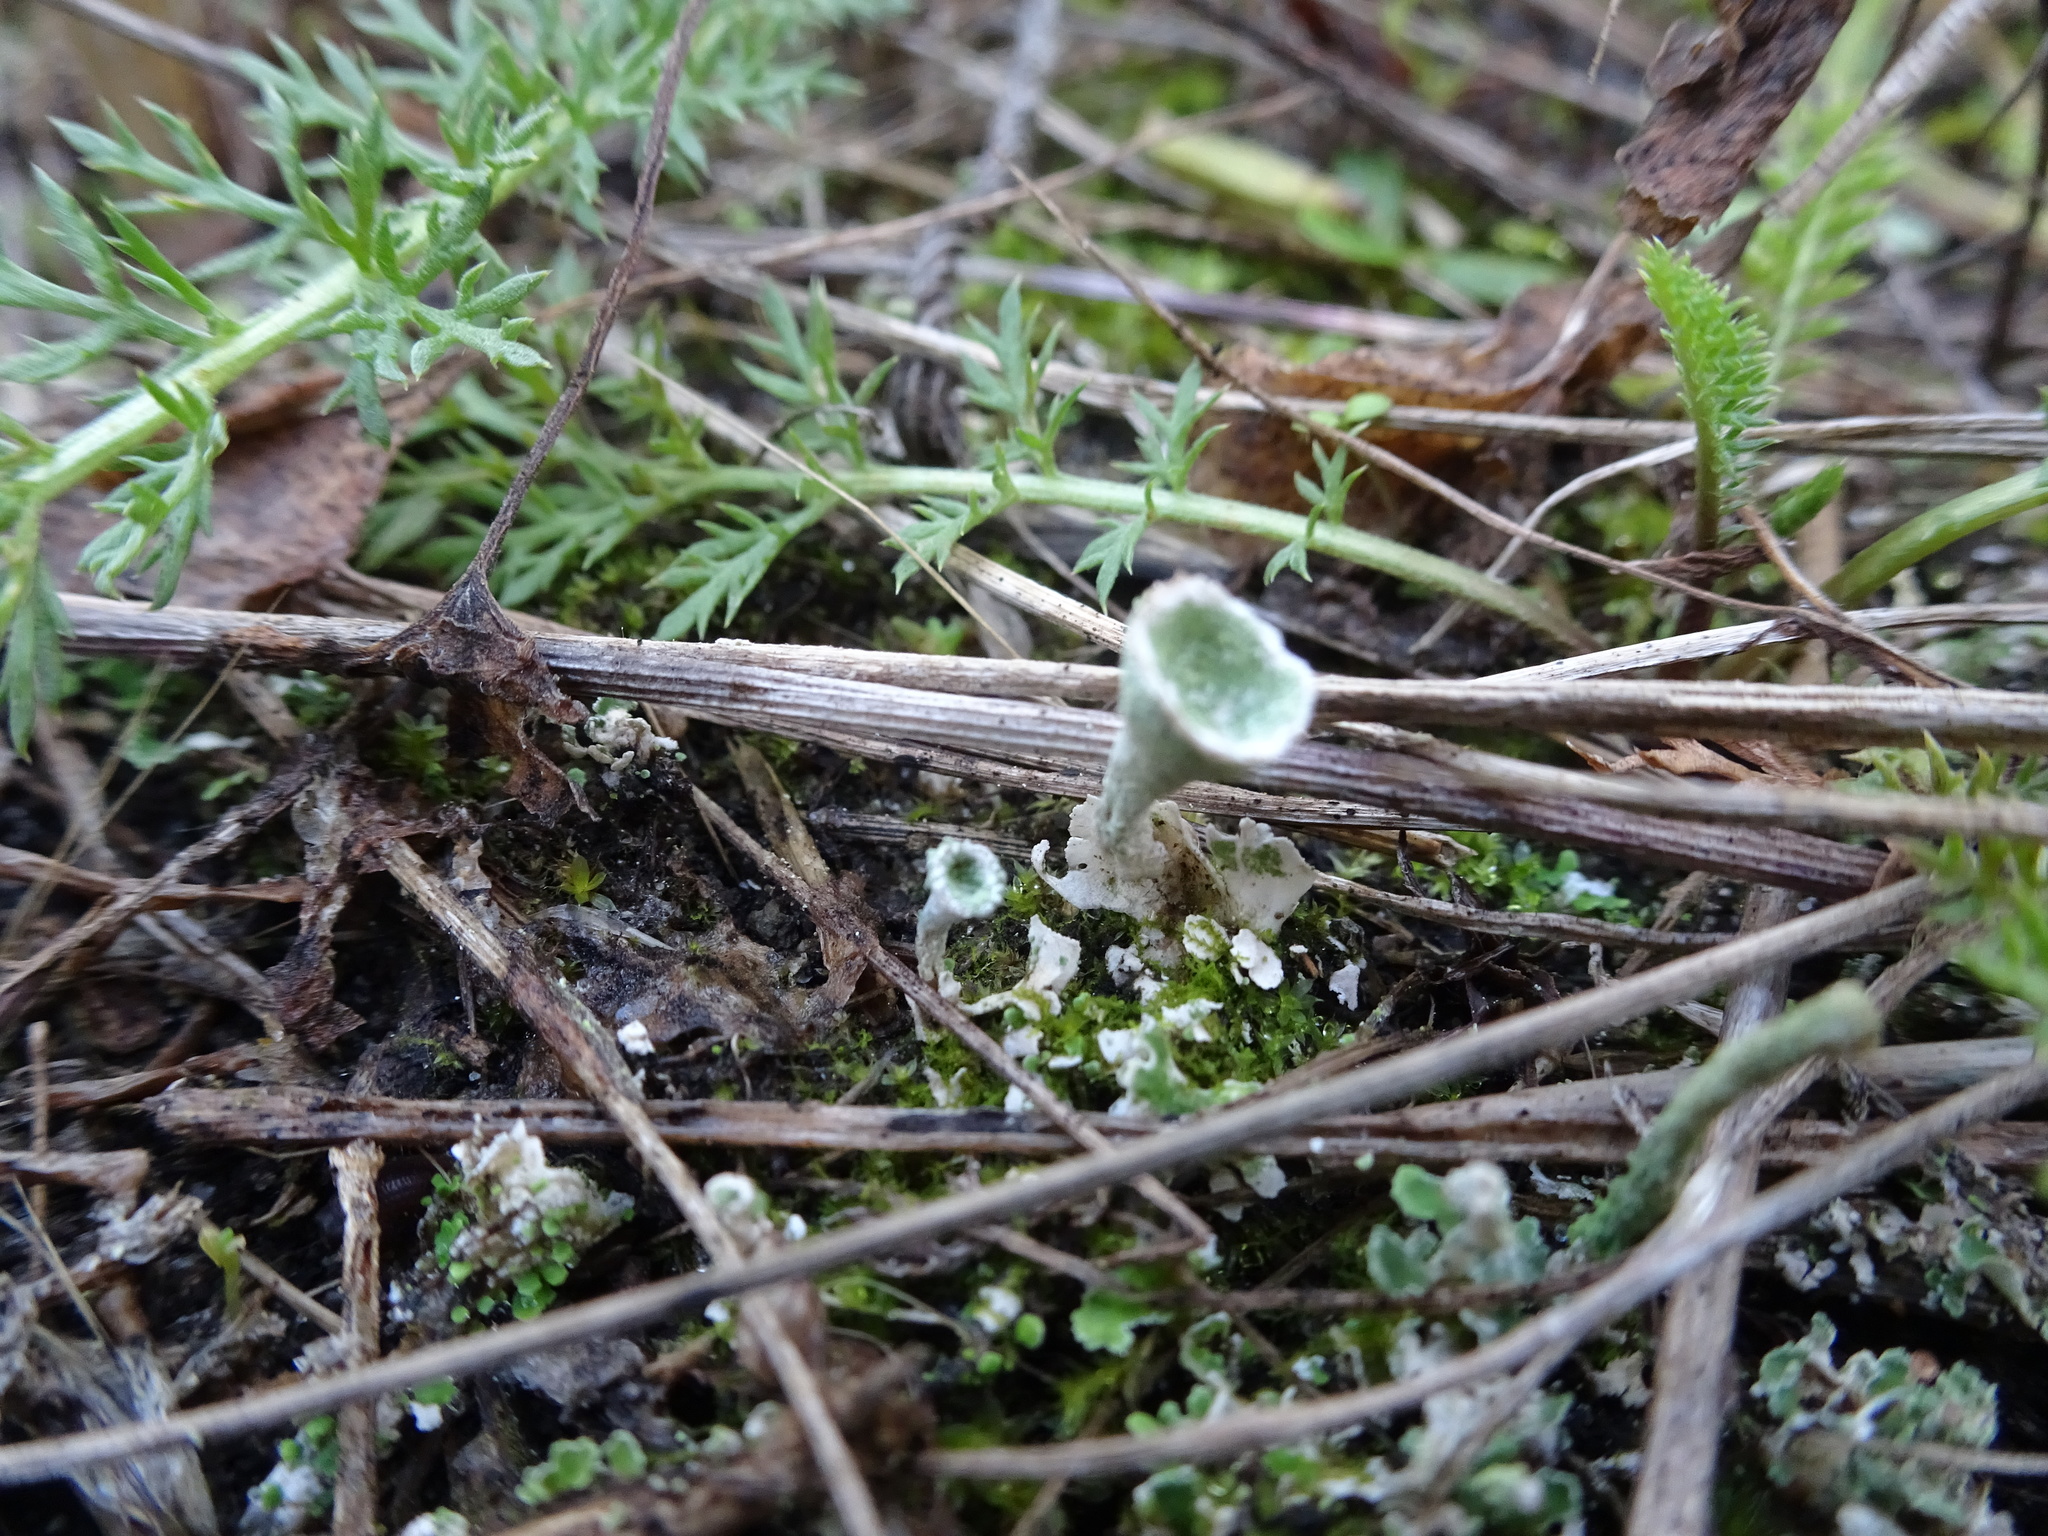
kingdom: Fungi
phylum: Ascomycota
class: Lecanoromycetes
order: Lecanorales
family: Cladoniaceae
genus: Cladonia
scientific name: Cladonia pyxidata
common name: Pebbled pixie cup
